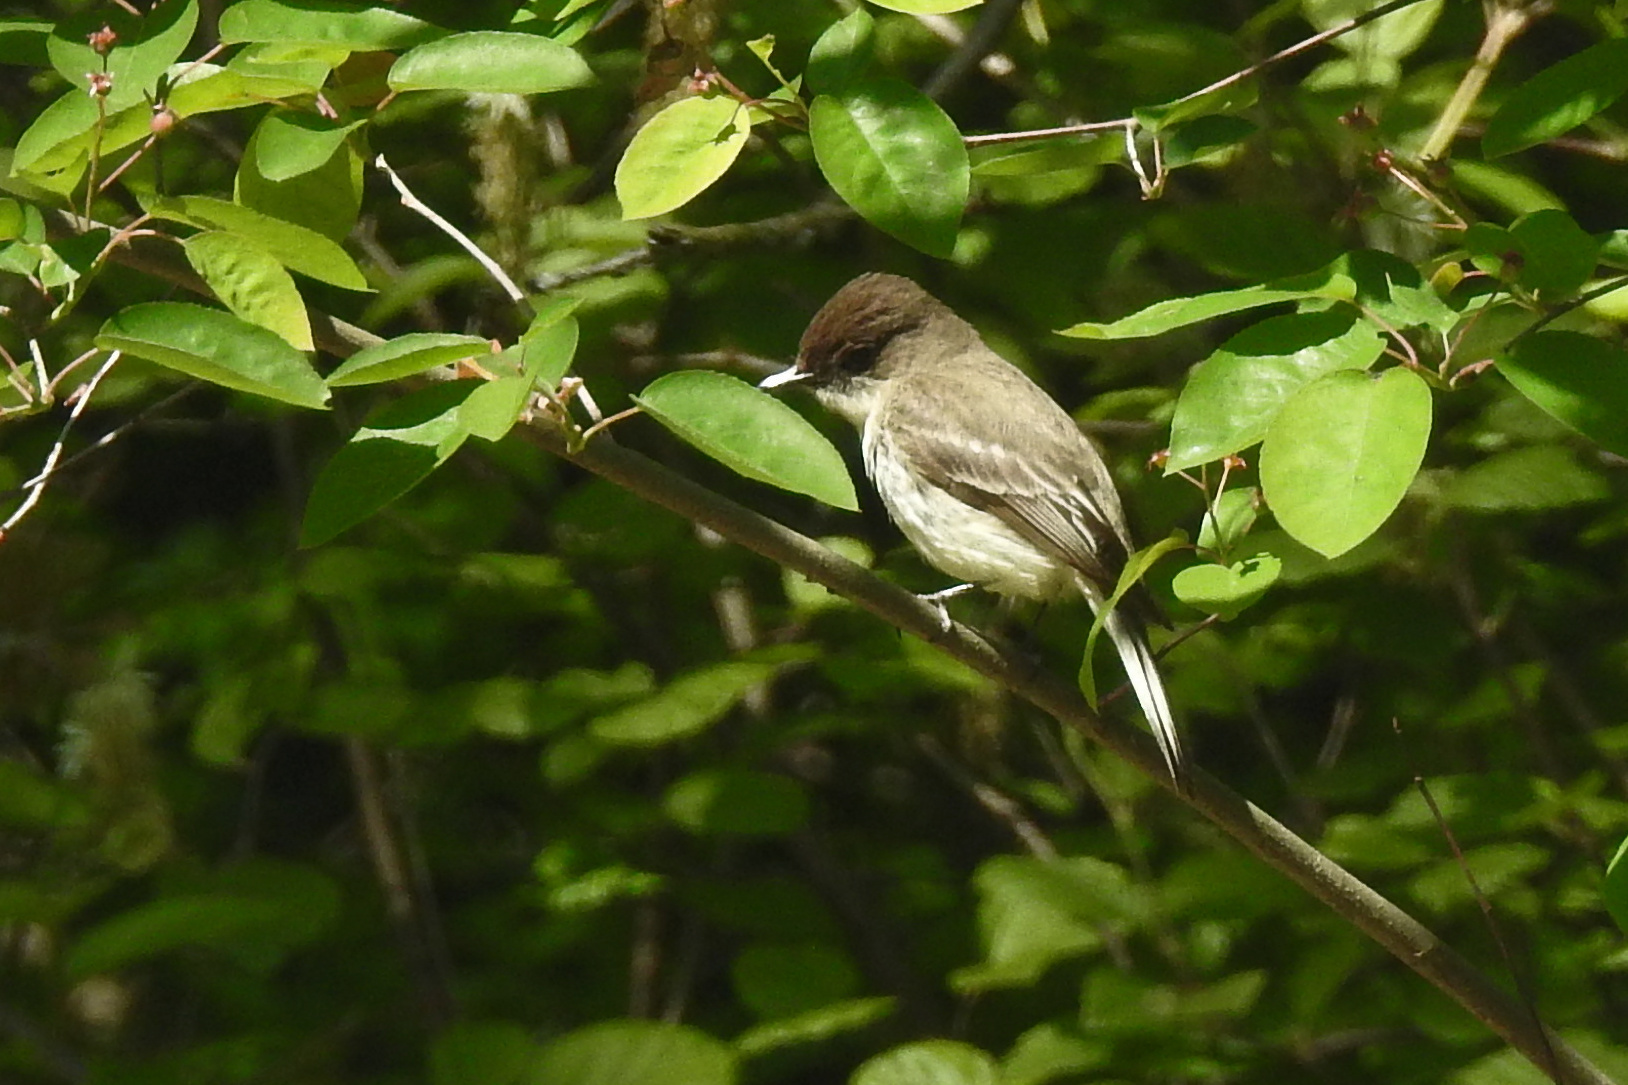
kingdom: Animalia
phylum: Chordata
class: Aves
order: Passeriformes
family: Tyrannidae
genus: Sayornis
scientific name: Sayornis phoebe
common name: Eastern phoebe
